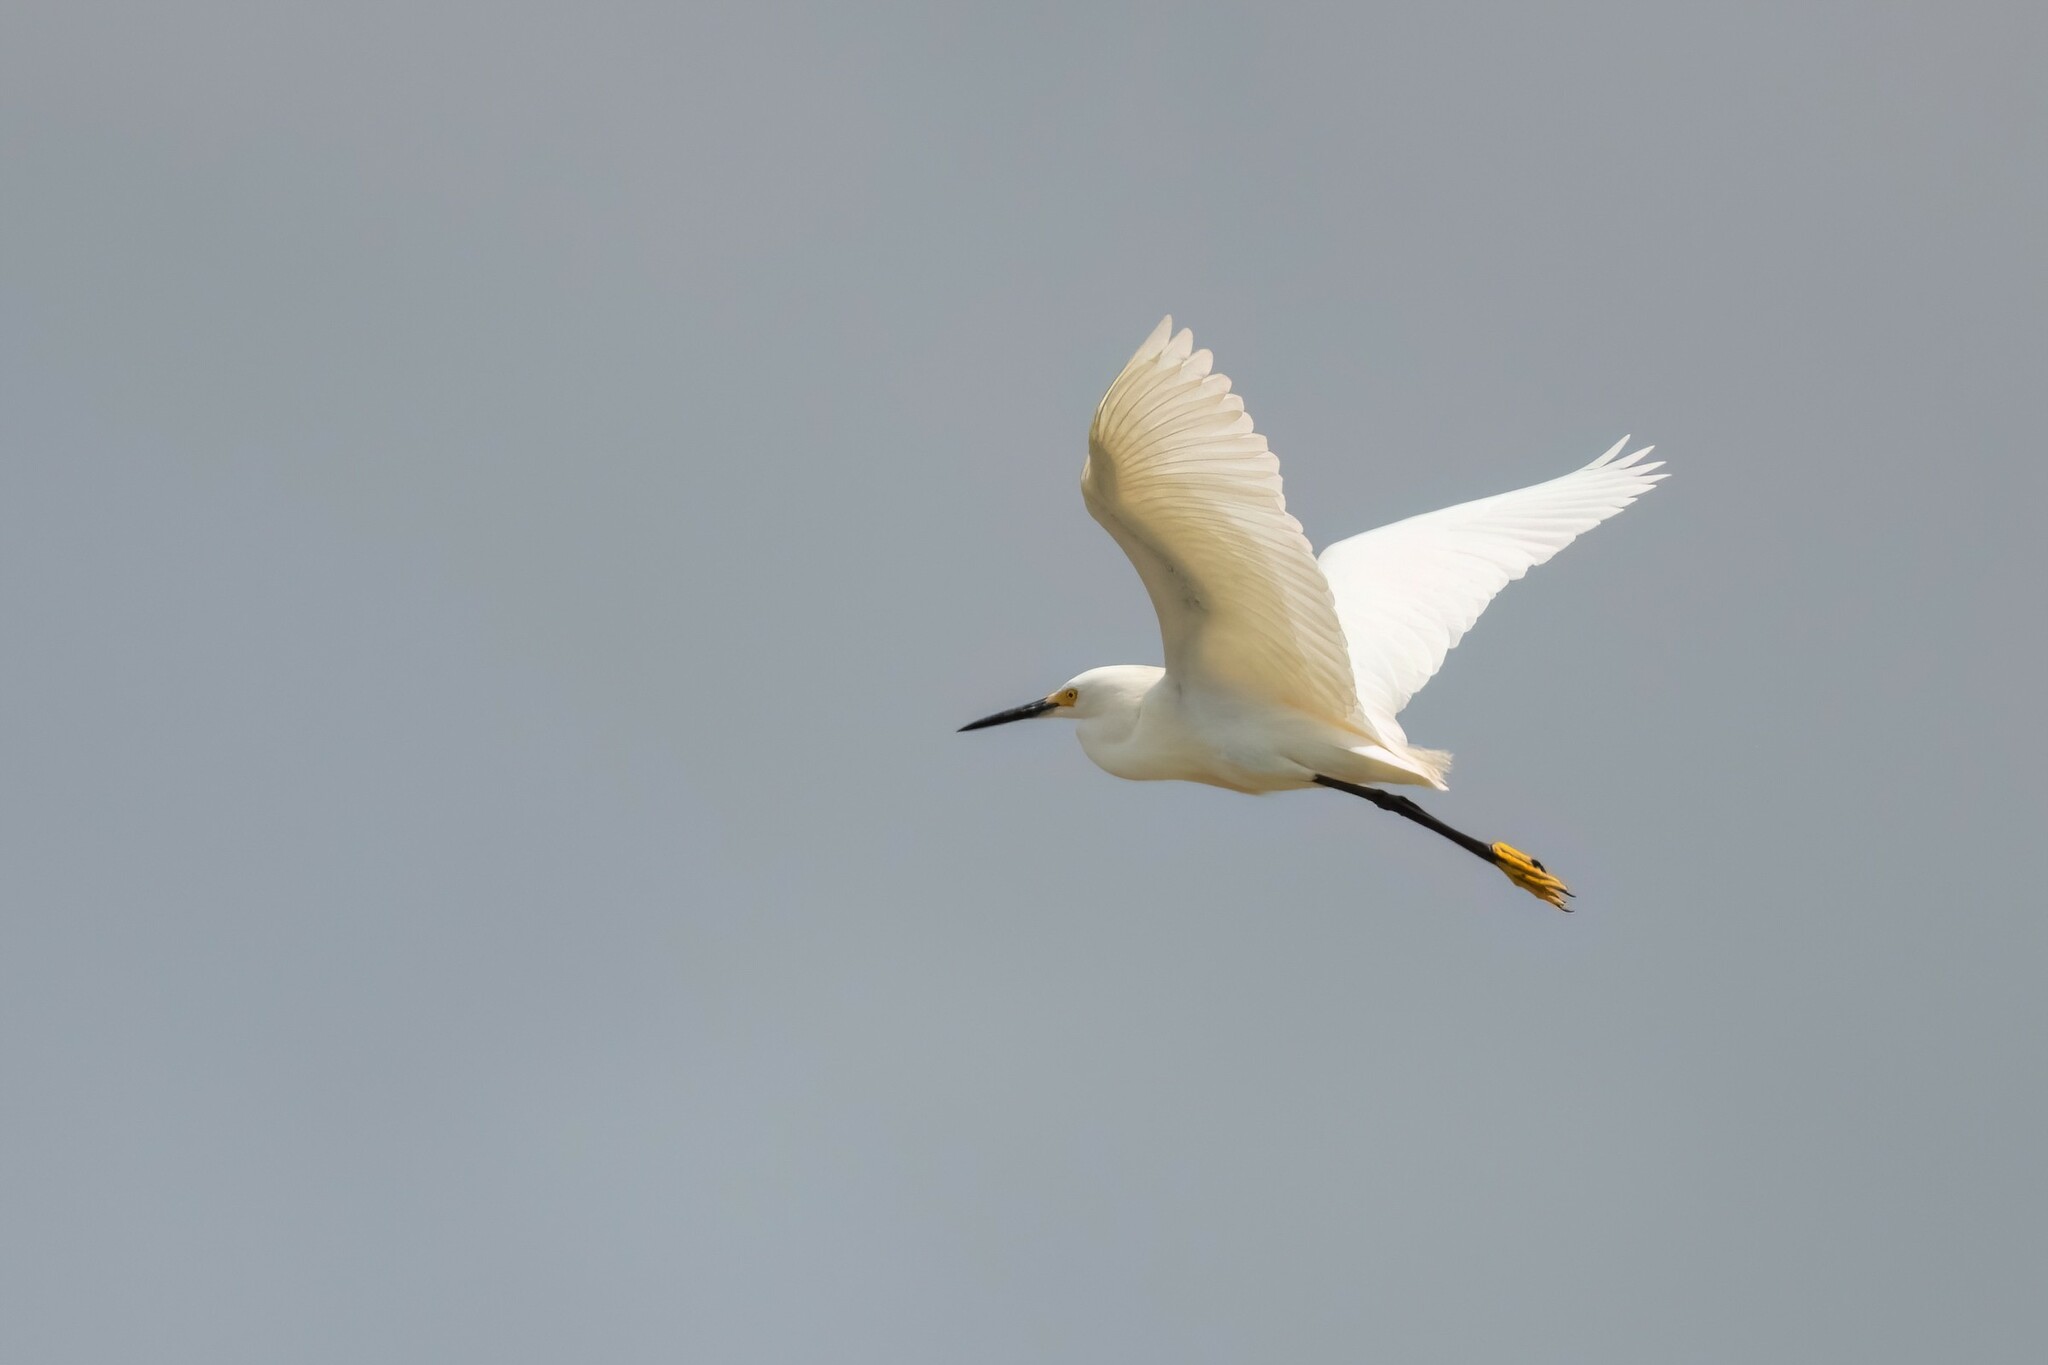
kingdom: Animalia
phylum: Chordata
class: Aves
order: Pelecaniformes
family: Ardeidae
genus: Egretta
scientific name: Egretta thula
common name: Snowy egret
